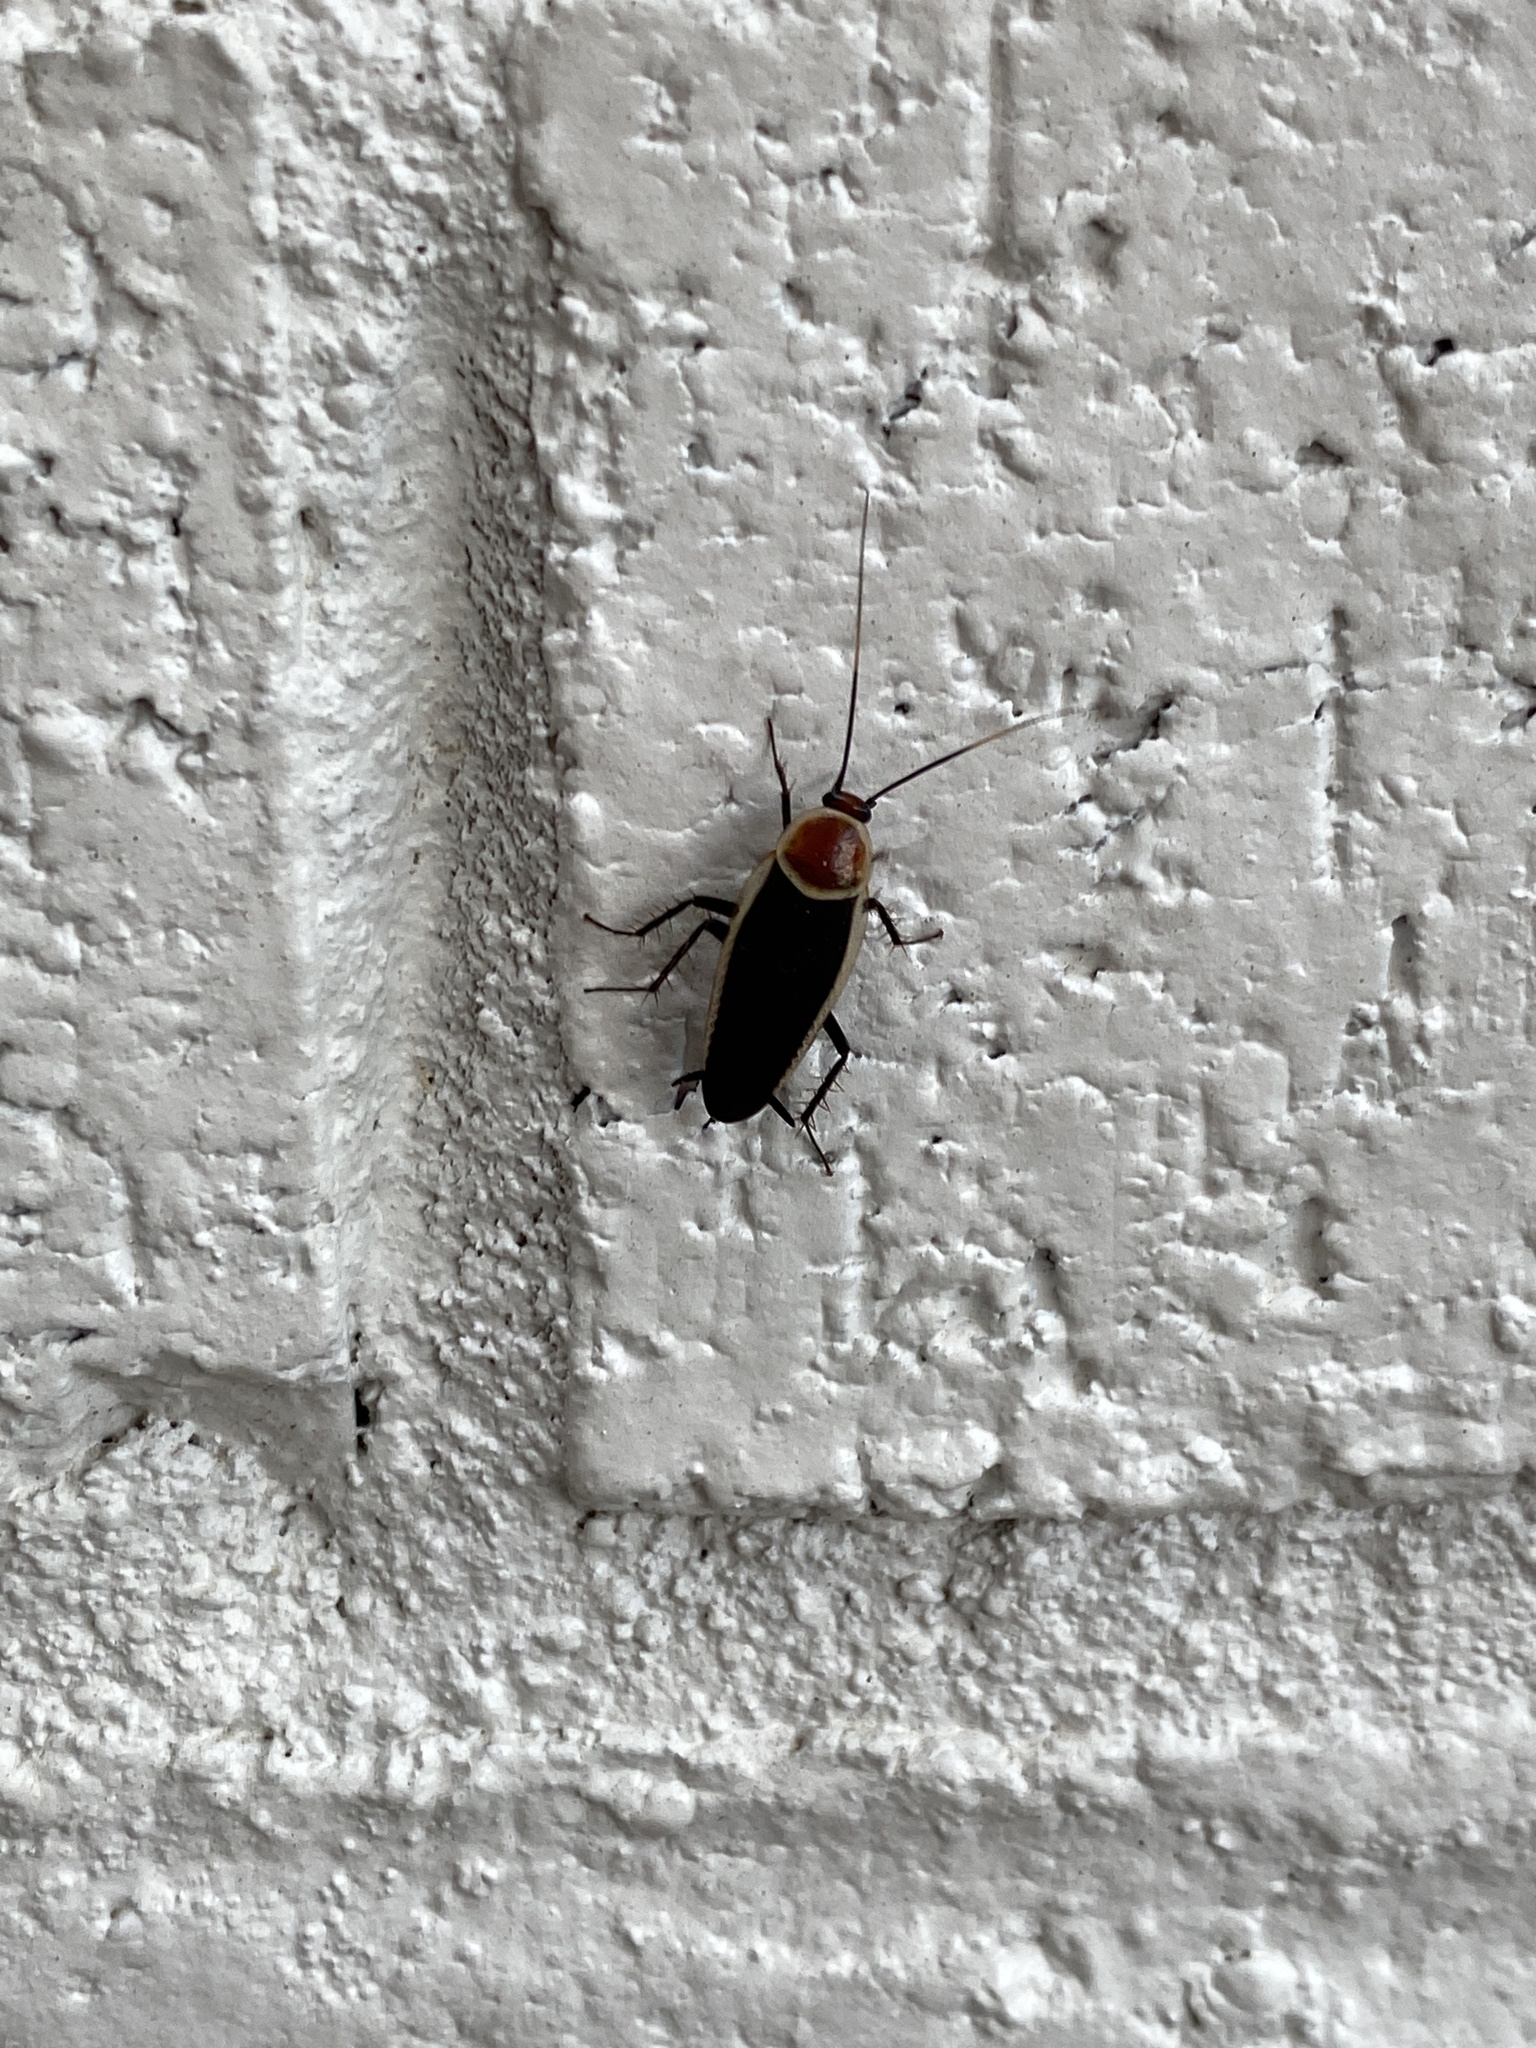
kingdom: Animalia
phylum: Arthropoda
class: Insecta
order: Blattodea
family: Ectobiidae
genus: Pseudomops
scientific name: Pseudomops septentrionalis
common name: Pale-bordered field cockroach
